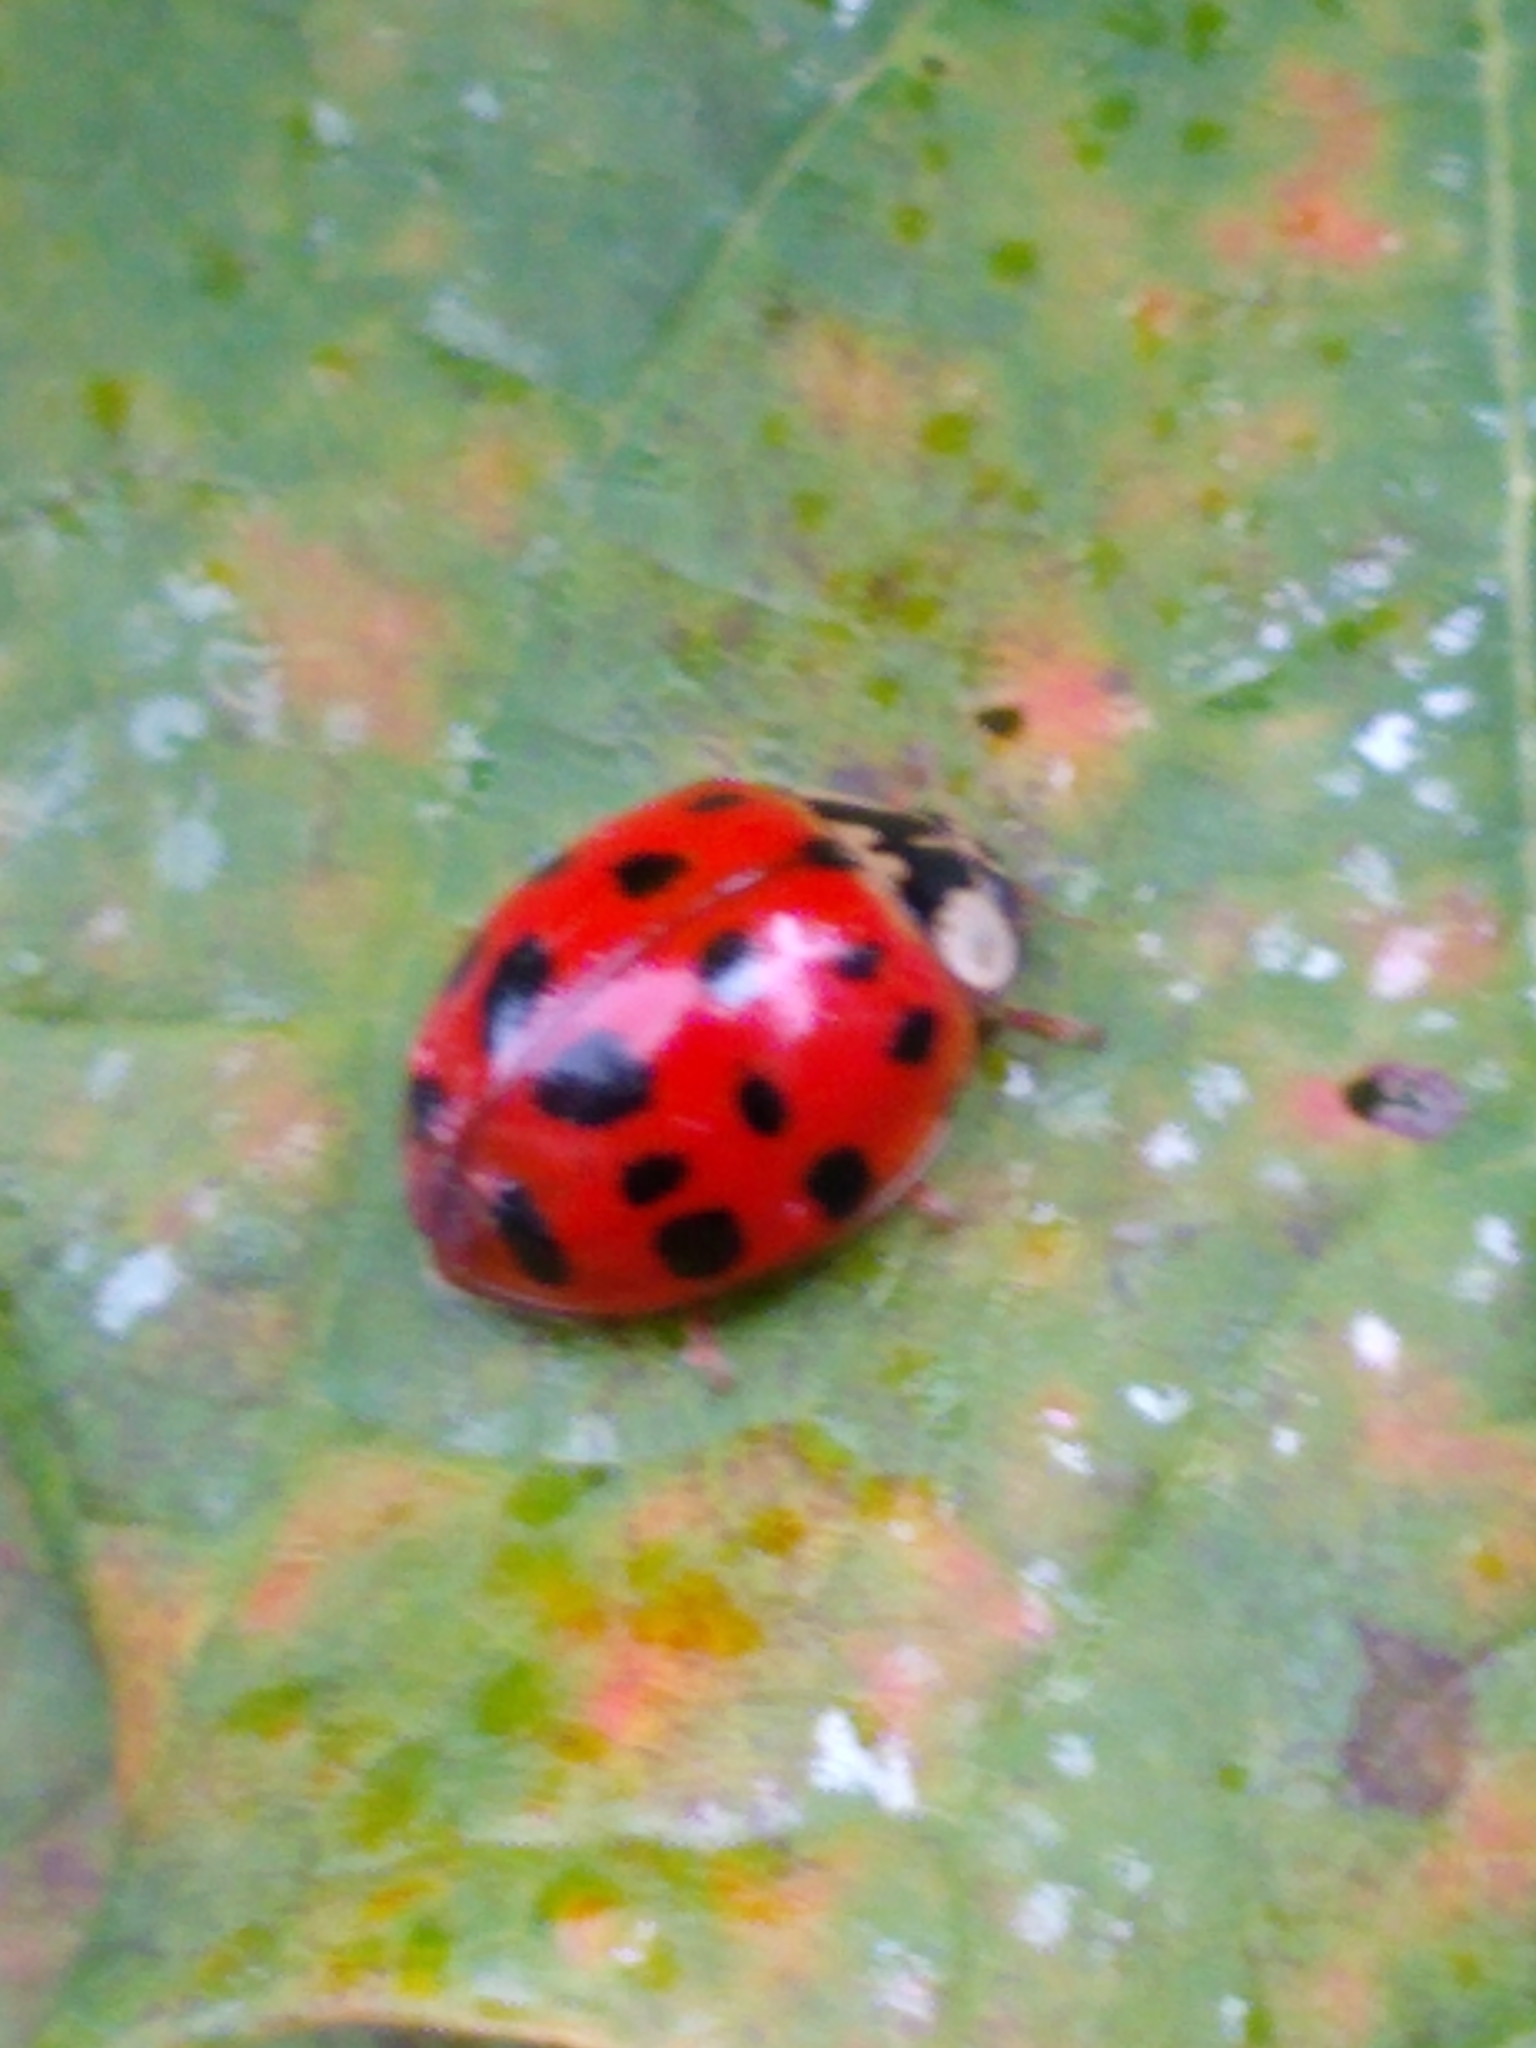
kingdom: Animalia
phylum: Arthropoda
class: Insecta
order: Coleoptera
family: Coccinellidae
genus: Harmonia
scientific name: Harmonia axyridis
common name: Harlequin ladybird
